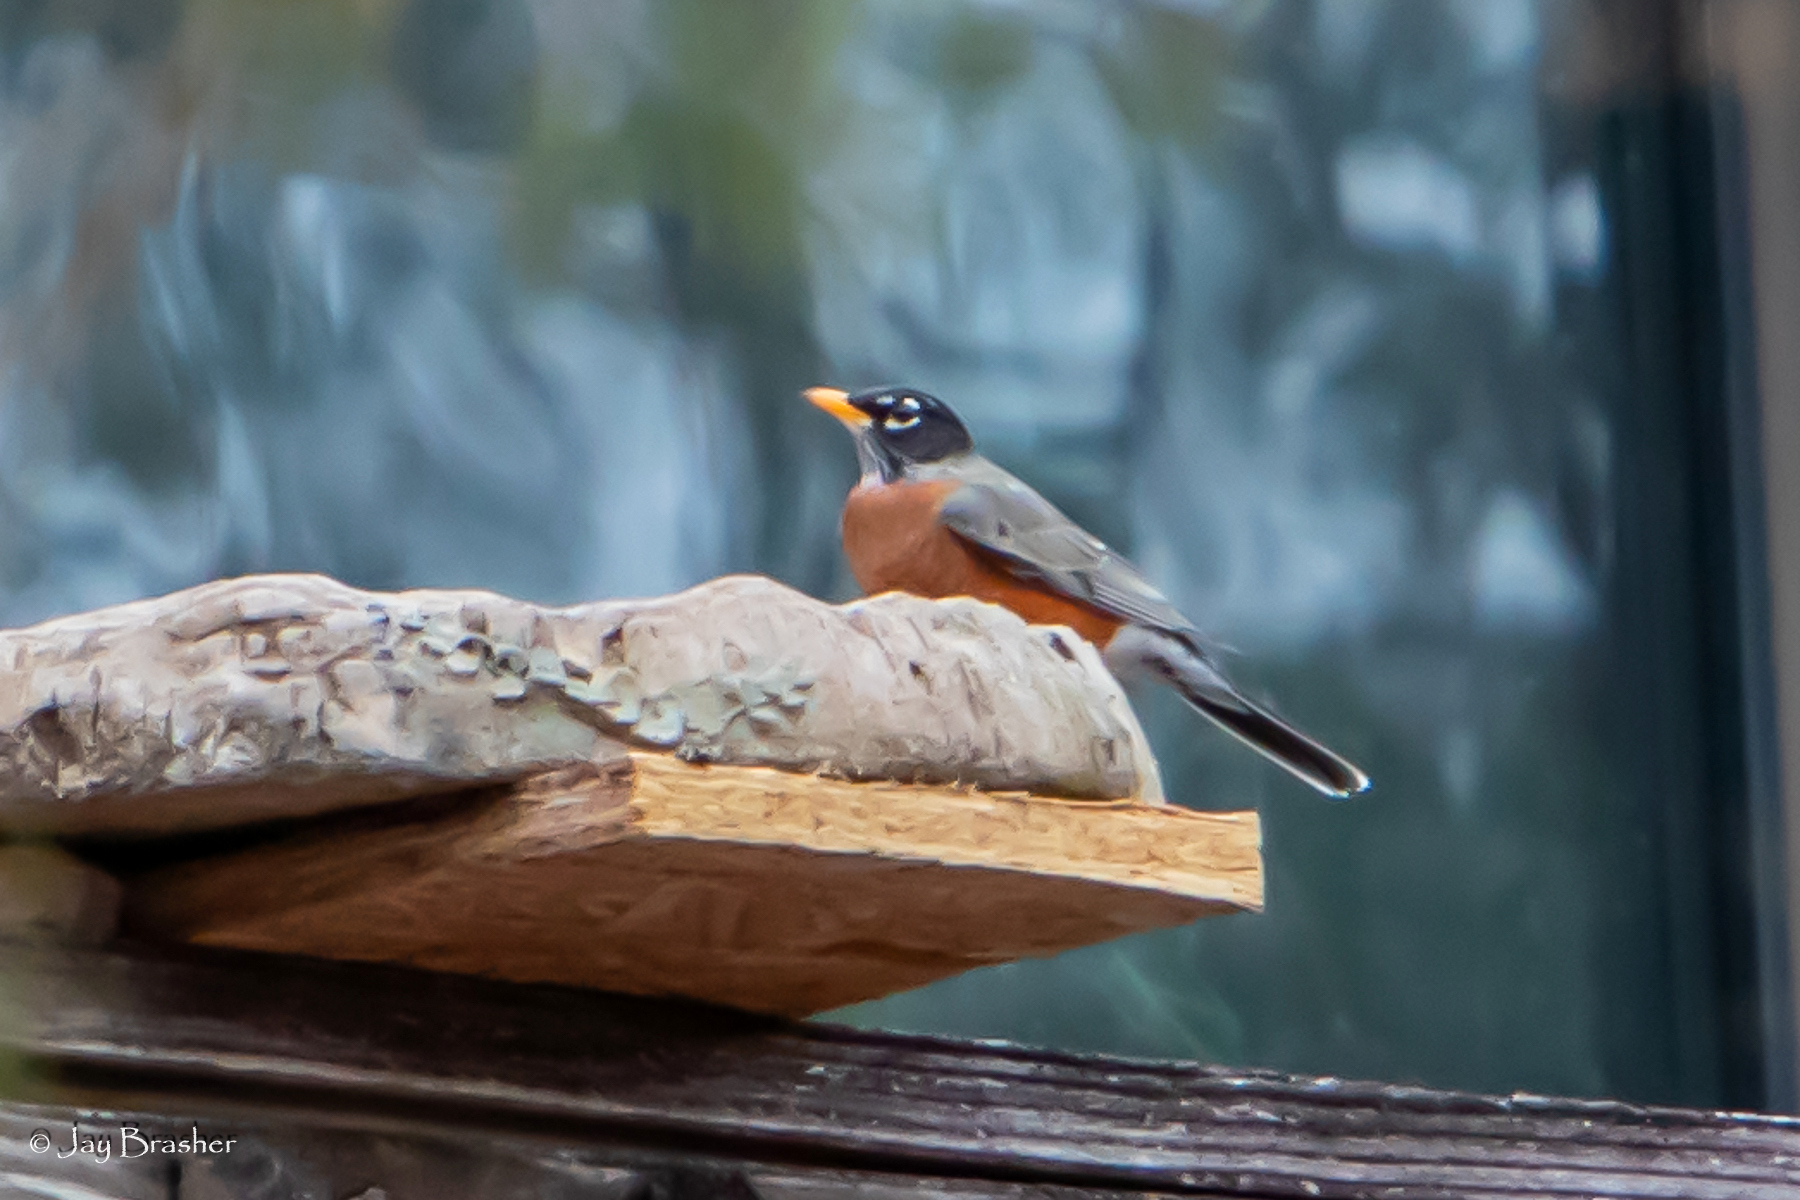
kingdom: Animalia
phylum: Chordata
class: Aves
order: Passeriformes
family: Turdidae
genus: Turdus
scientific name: Turdus migratorius
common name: American robin
